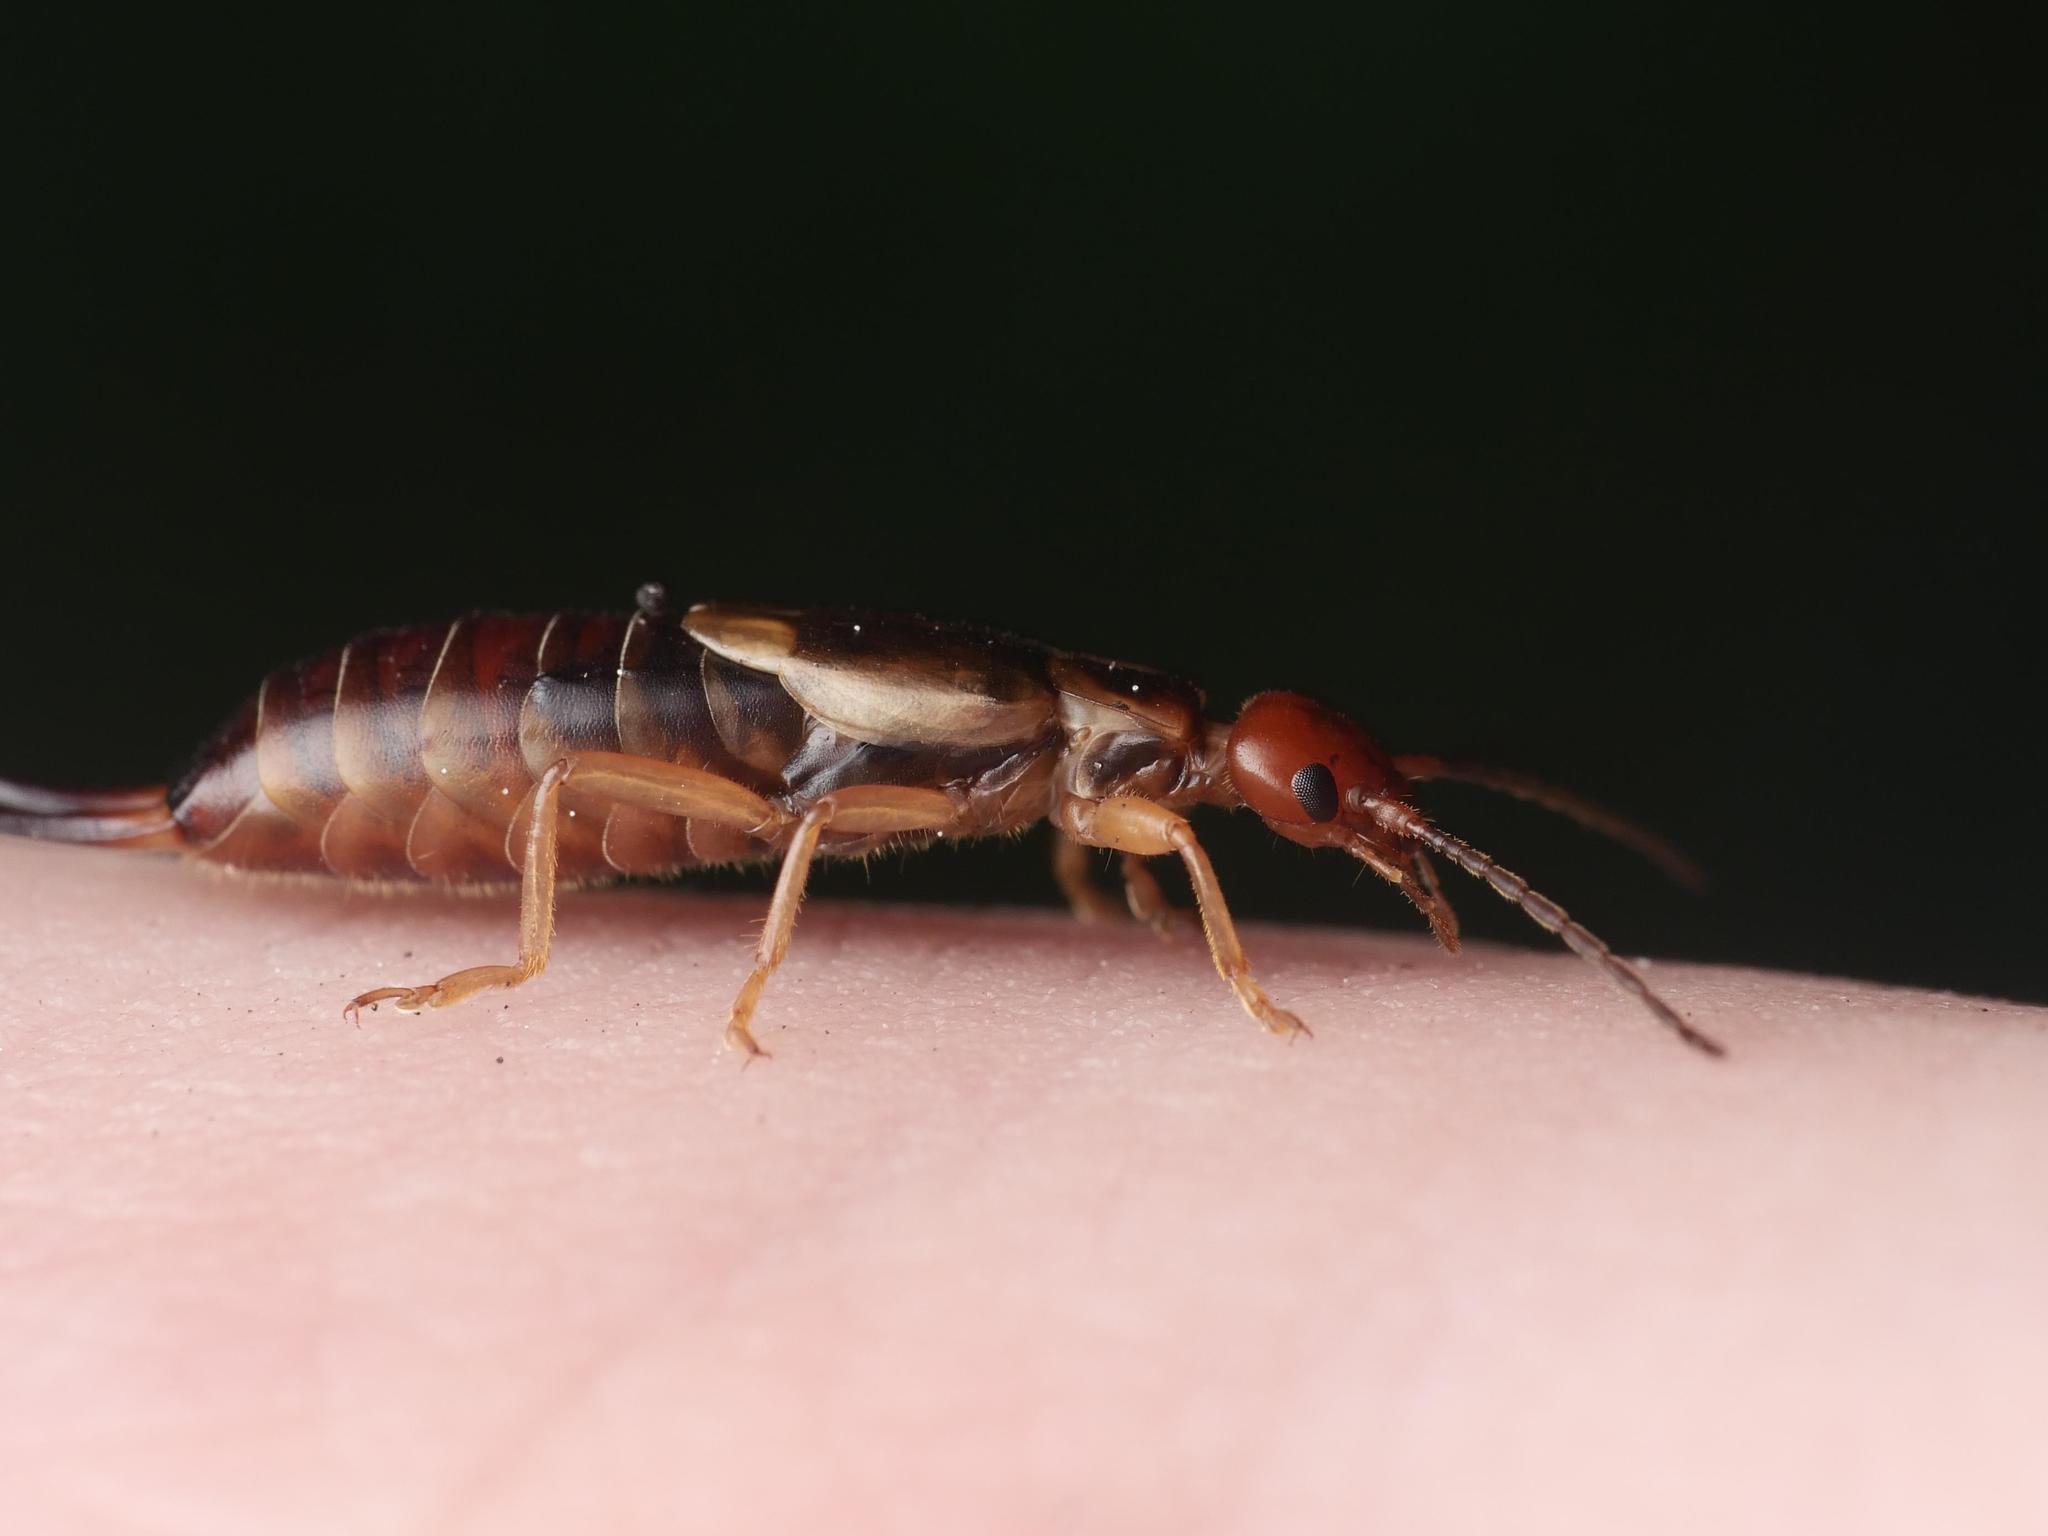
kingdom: Animalia
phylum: Arthropoda
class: Insecta
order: Dermaptera
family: Forficulidae
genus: Forficula
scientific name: Forficula
